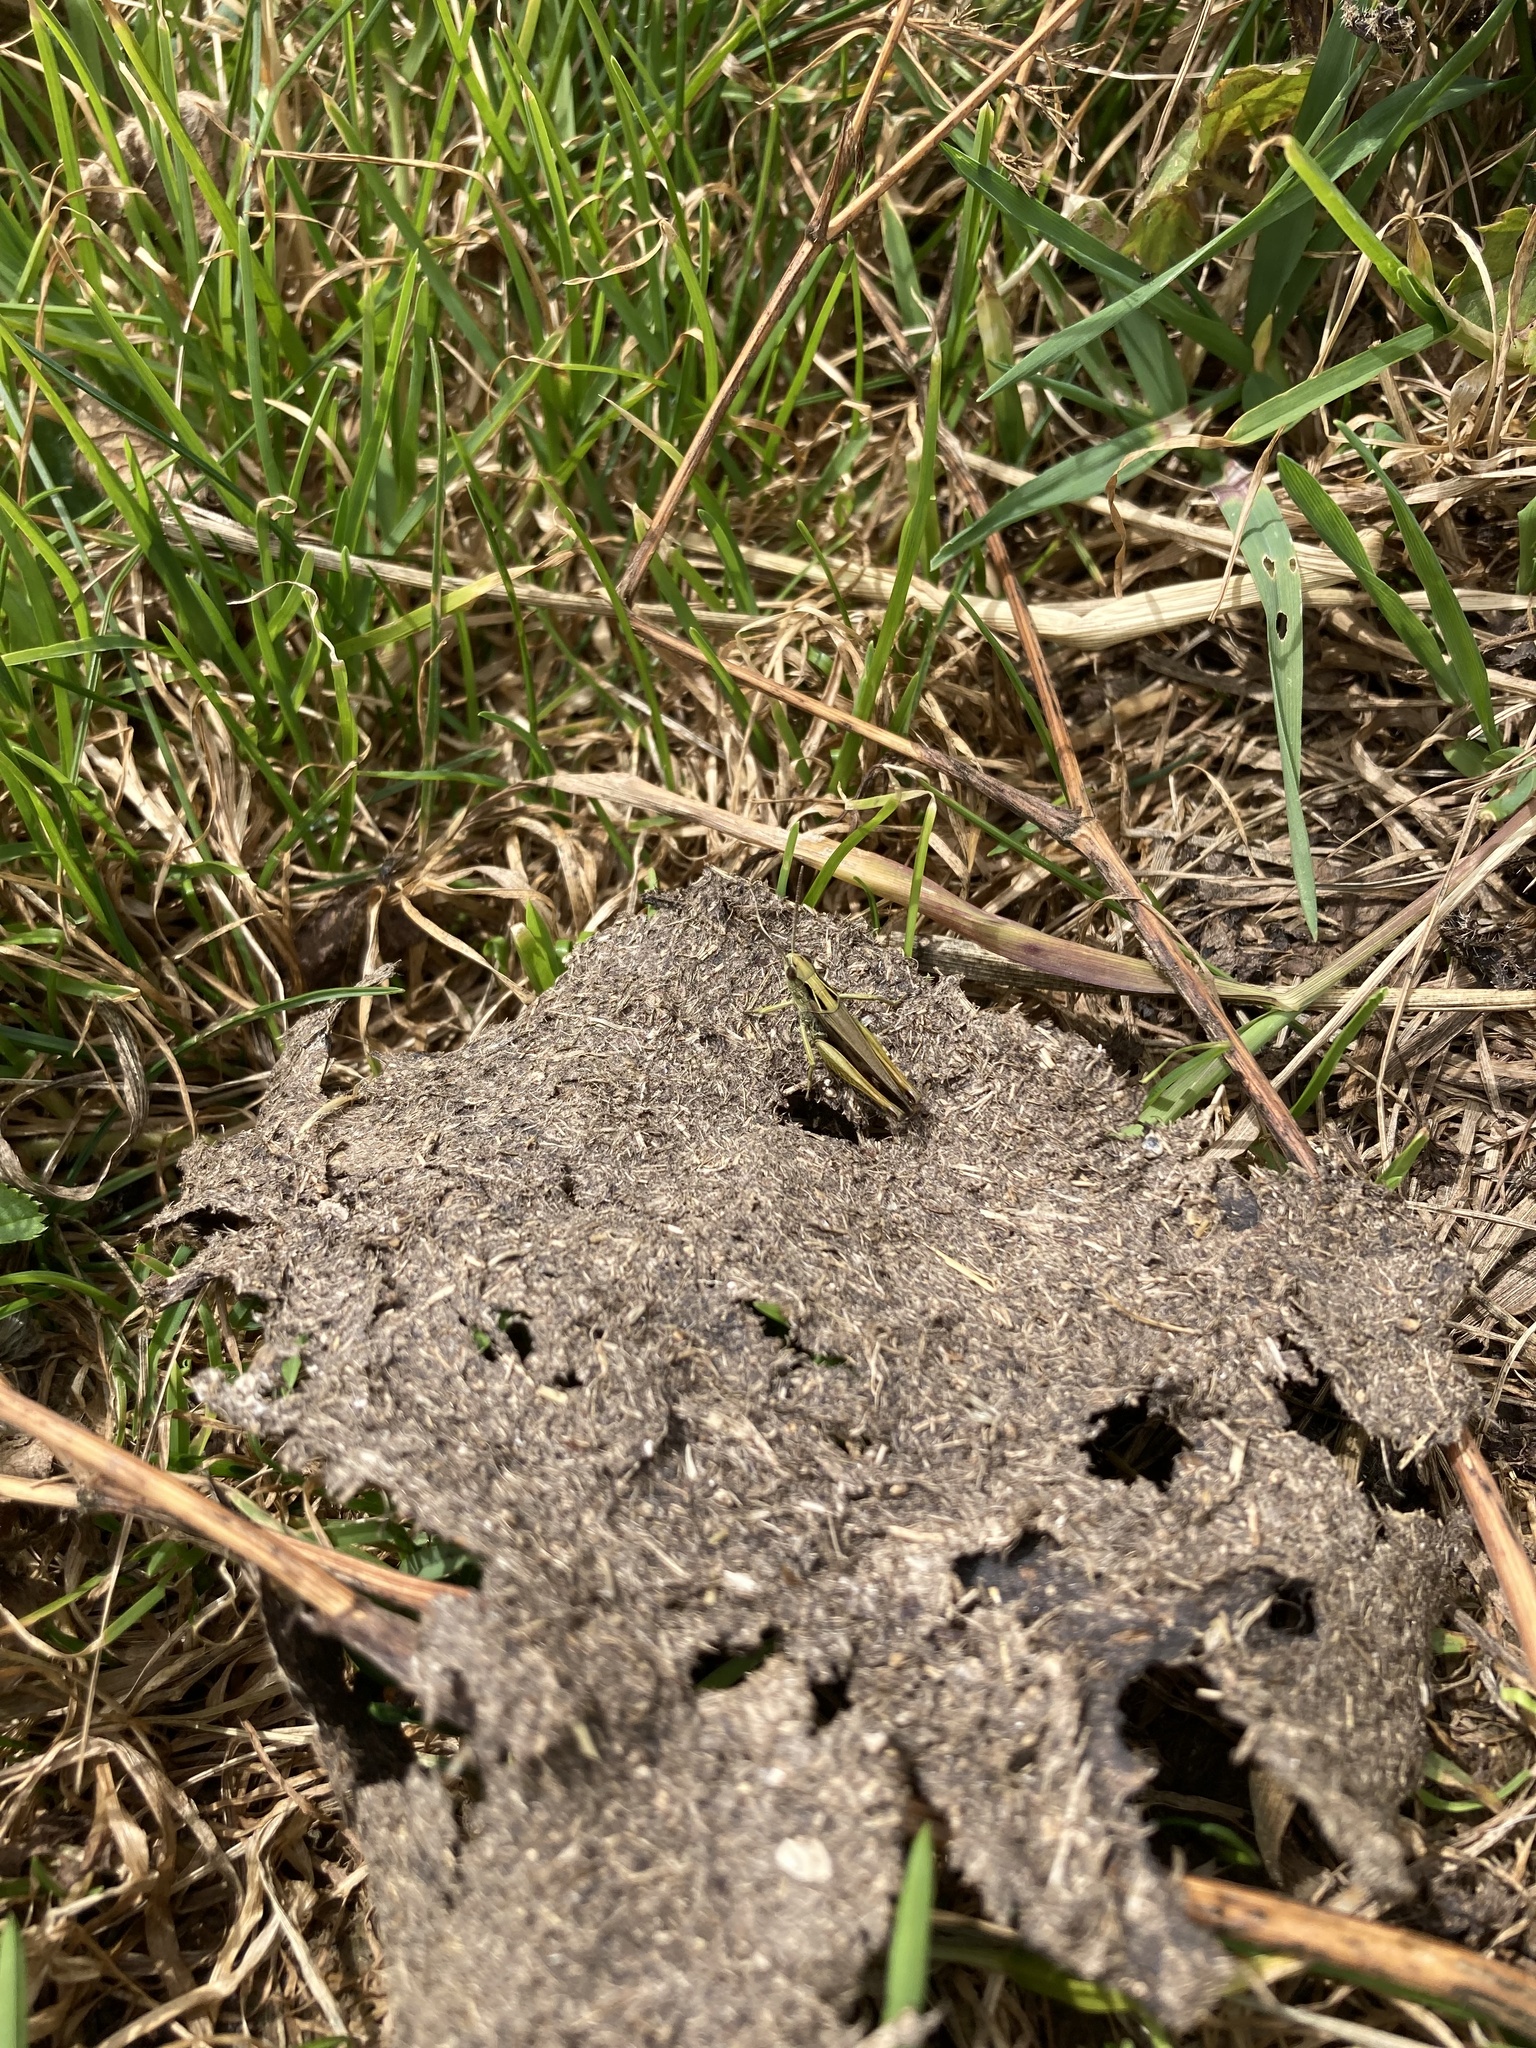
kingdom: Animalia
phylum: Arthropoda
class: Insecta
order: Orthoptera
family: Acrididae
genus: Omocestus
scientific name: Omocestus viridulus
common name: Common green grasshopper
